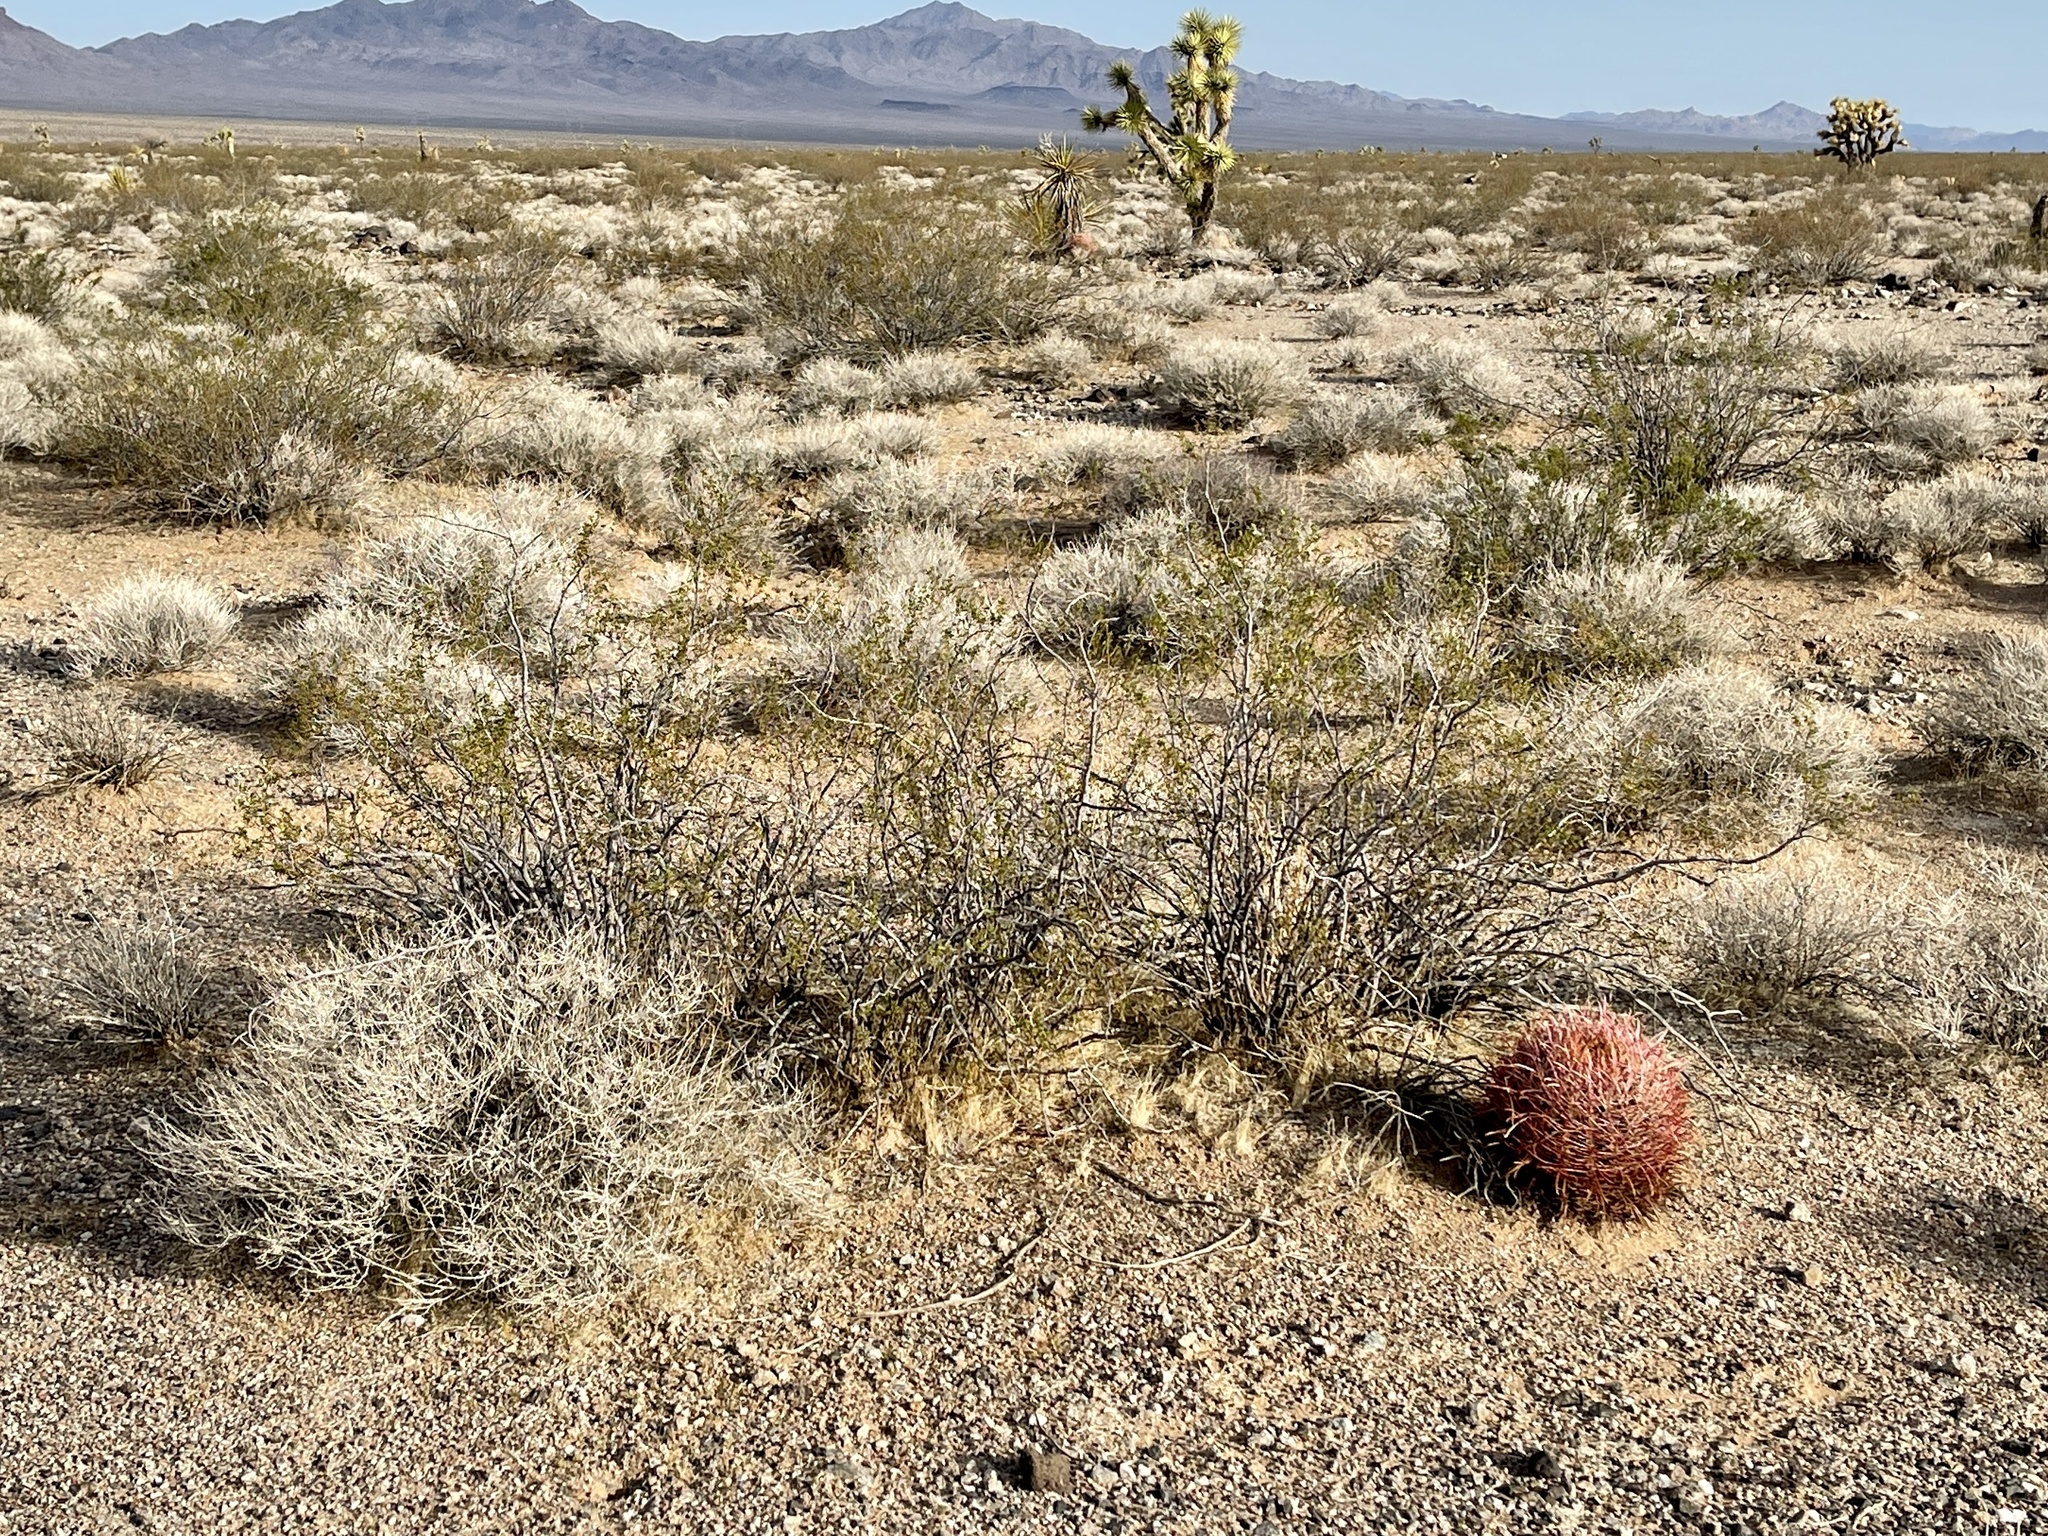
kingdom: Plantae
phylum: Tracheophyta
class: Magnoliopsida
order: Zygophyllales
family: Zygophyllaceae
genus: Larrea
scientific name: Larrea tridentata
